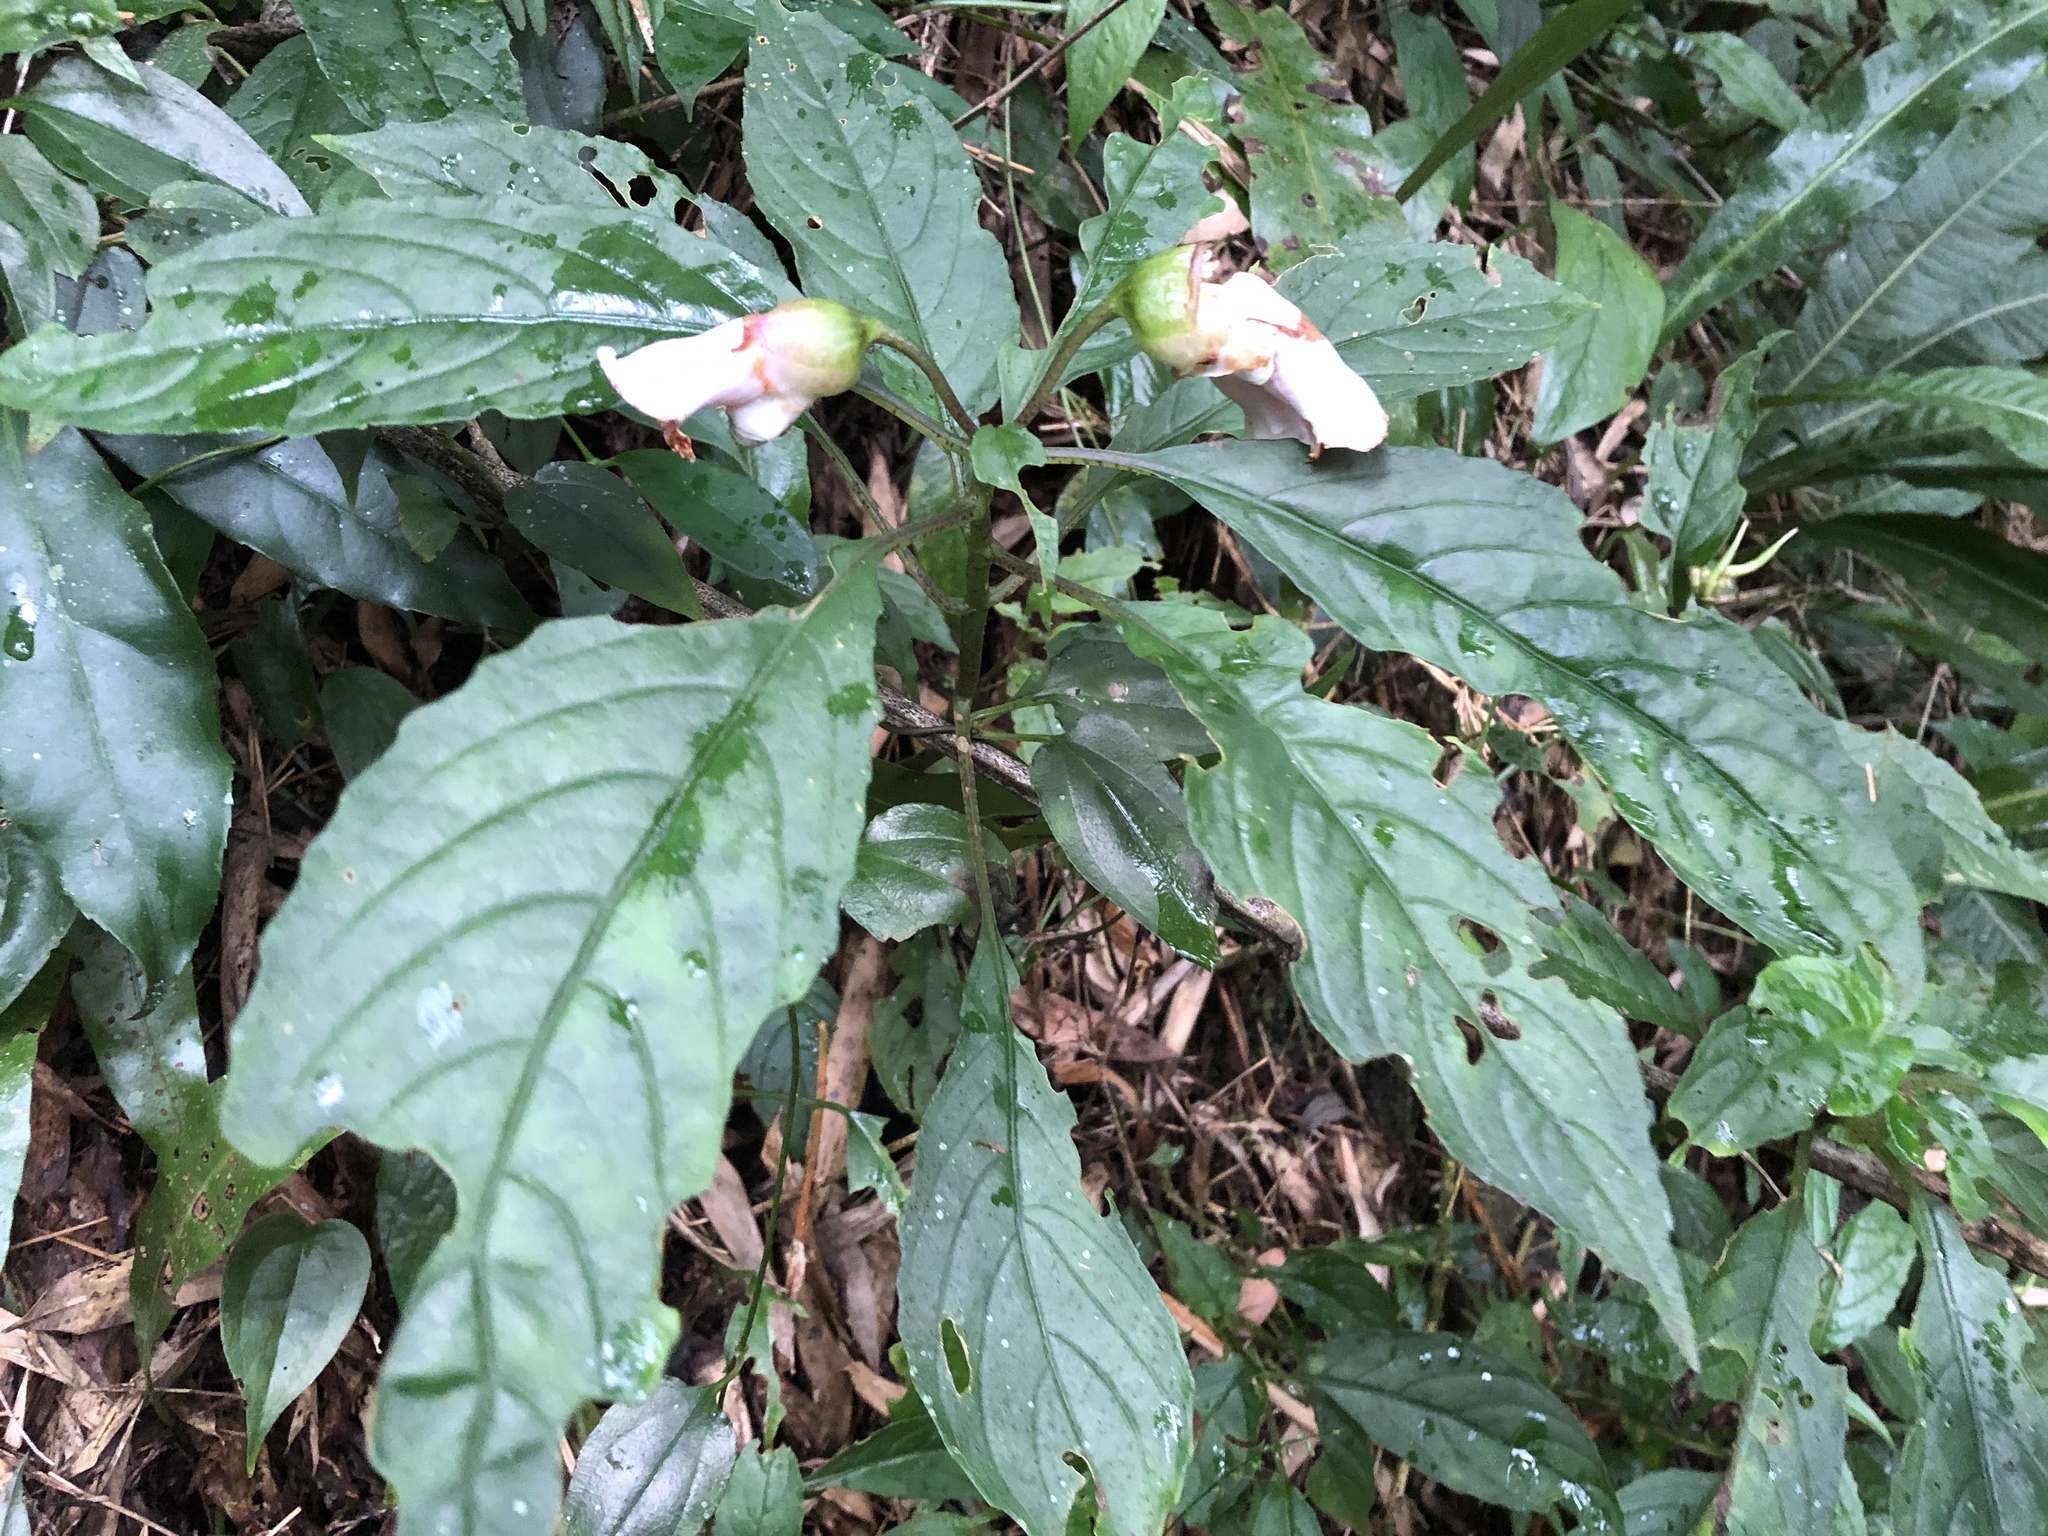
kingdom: Plantae
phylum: Tracheophyta
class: Magnoliopsida
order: Lamiales
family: Gesneriaceae
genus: Hemiboea
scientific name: Hemiboea bicornuta
